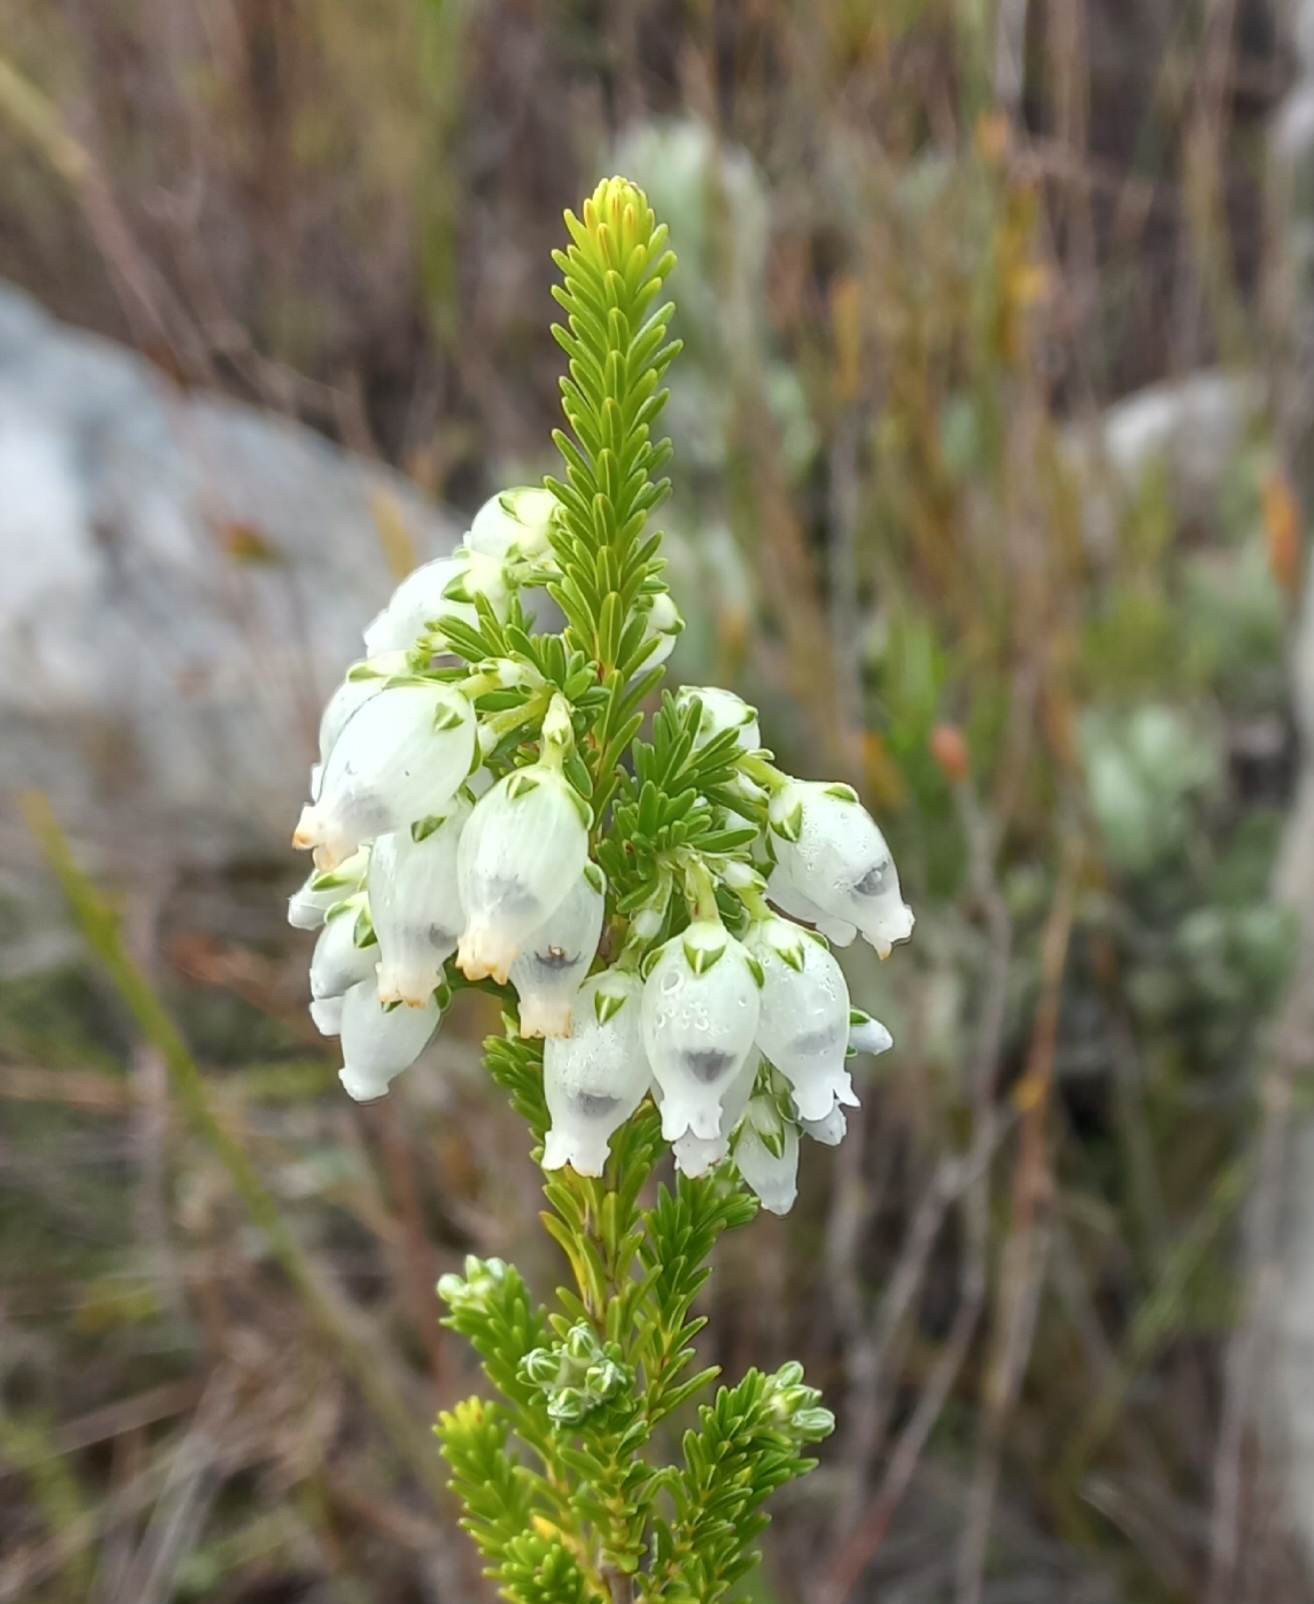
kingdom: Plantae
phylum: Tracheophyta
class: Magnoliopsida
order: Ericales
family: Ericaceae
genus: Erica
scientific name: Erica physodes
